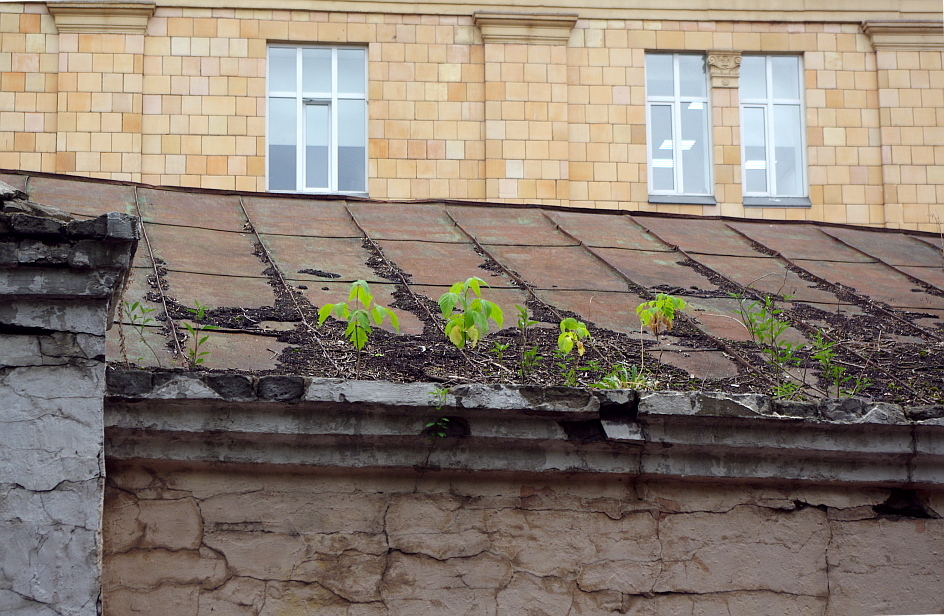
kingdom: Plantae
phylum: Tracheophyta
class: Magnoliopsida
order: Sapindales
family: Sapindaceae
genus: Acer
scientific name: Acer negundo
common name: Ashleaf maple
